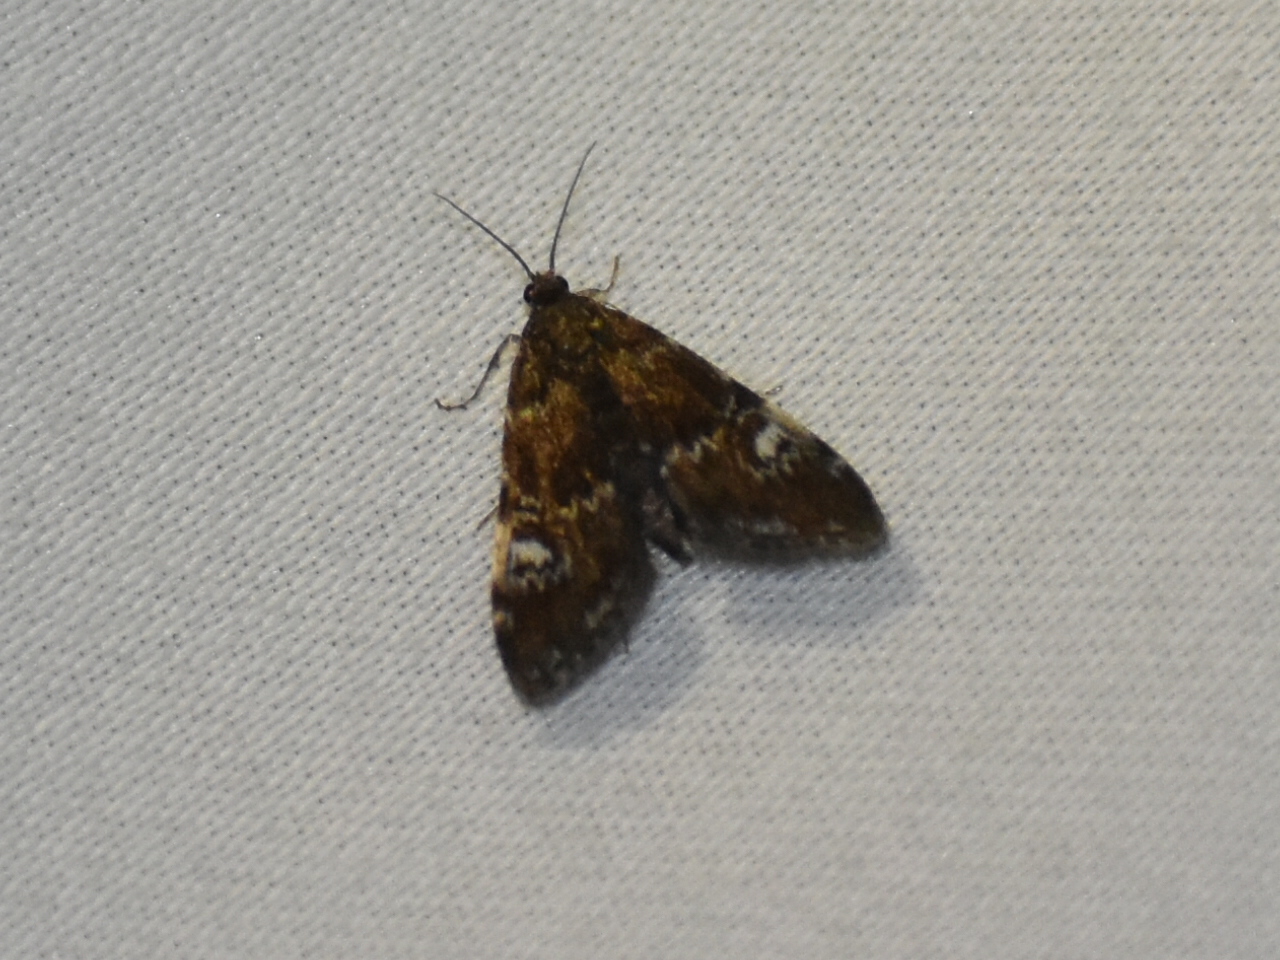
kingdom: Animalia
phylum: Arthropoda
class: Insecta
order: Lepidoptera
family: Crambidae
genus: Elophila
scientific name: Elophila obliteralis
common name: Waterlily leafcutter moth
